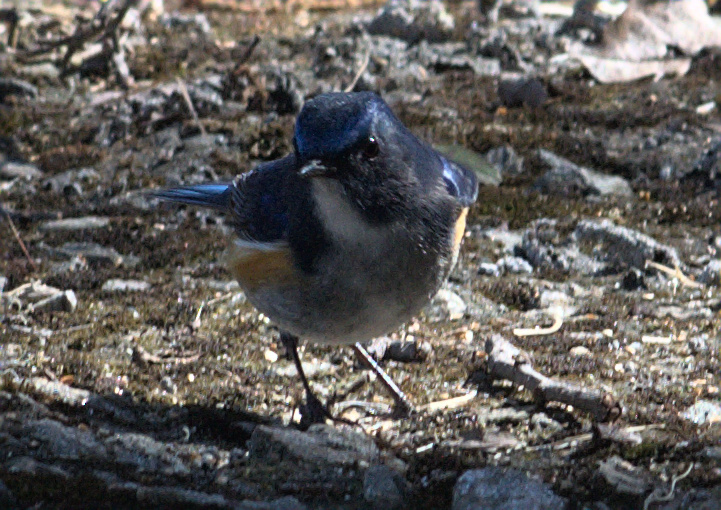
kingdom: Animalia
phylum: Chordata
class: Aves
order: Passeriformes
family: Muscicapidae
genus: Tarsiger
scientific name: Tarsiger rufilatus
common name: Himalayan bluetail
